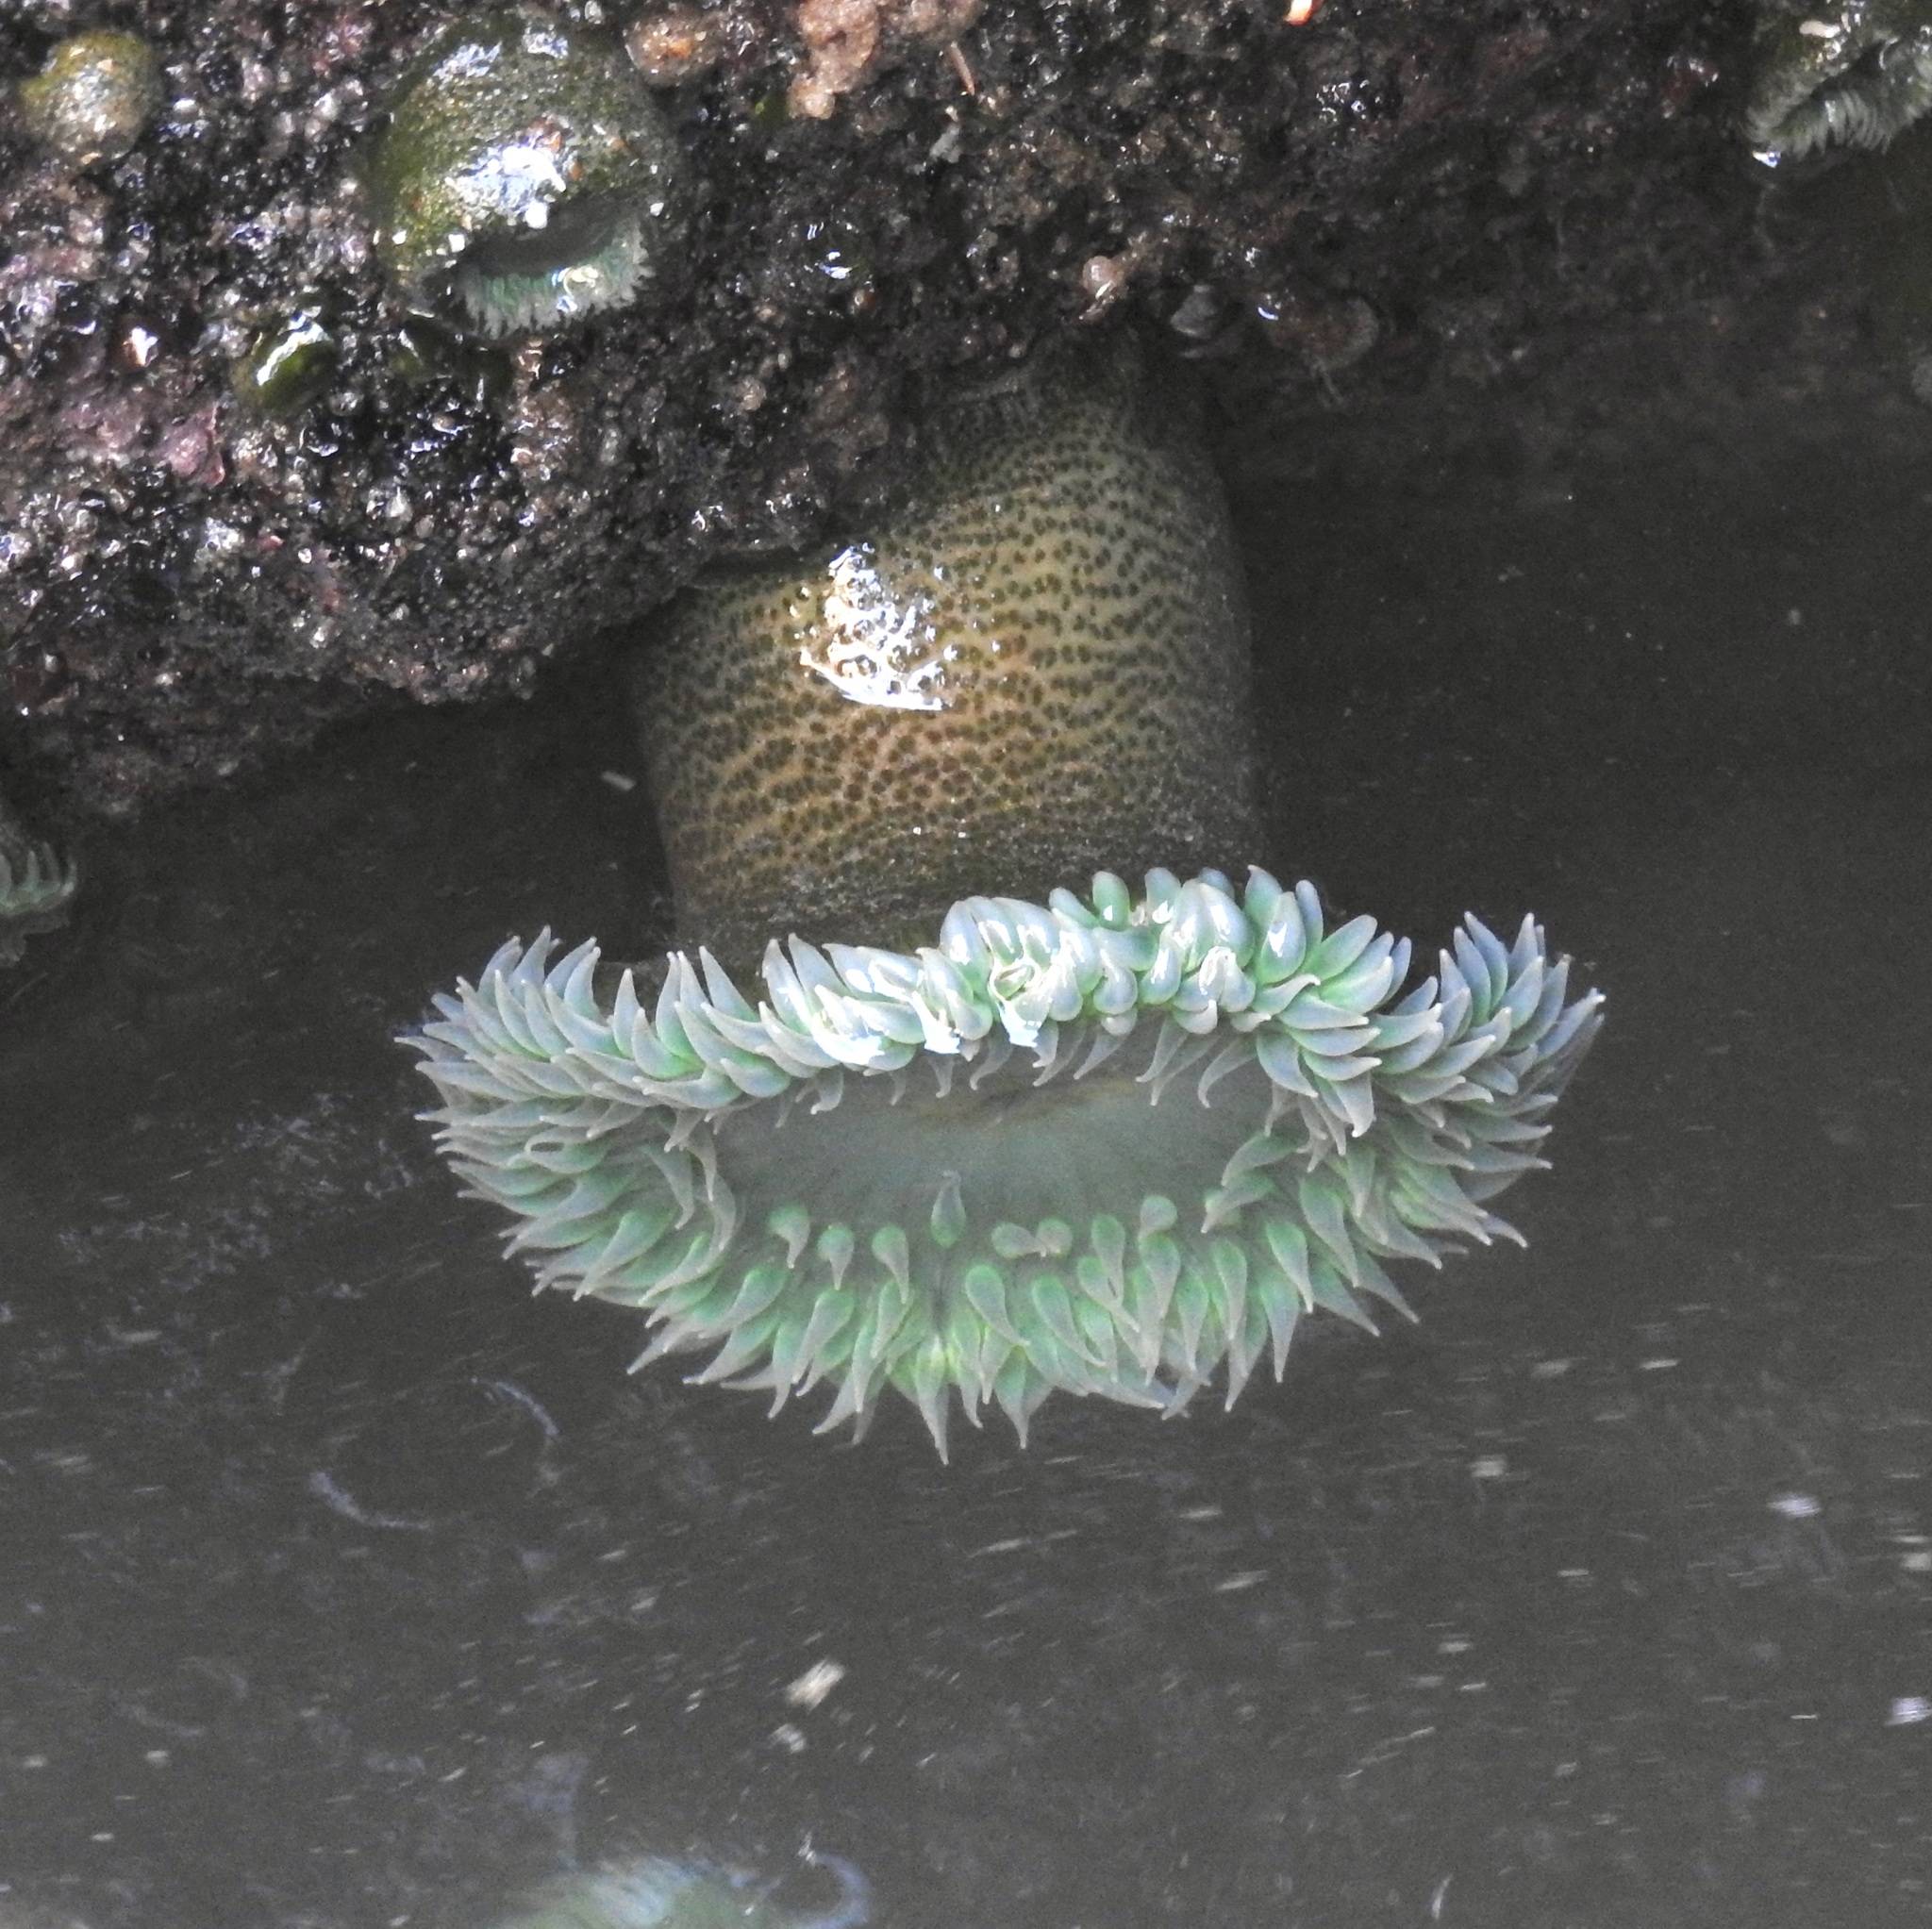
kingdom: Animalia
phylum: Cnidaria
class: Anthozoa
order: Actiniaria
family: Actiniidae
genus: Anthopleura
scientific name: Anthopleura xanthogrammica
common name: Giant green anemone
